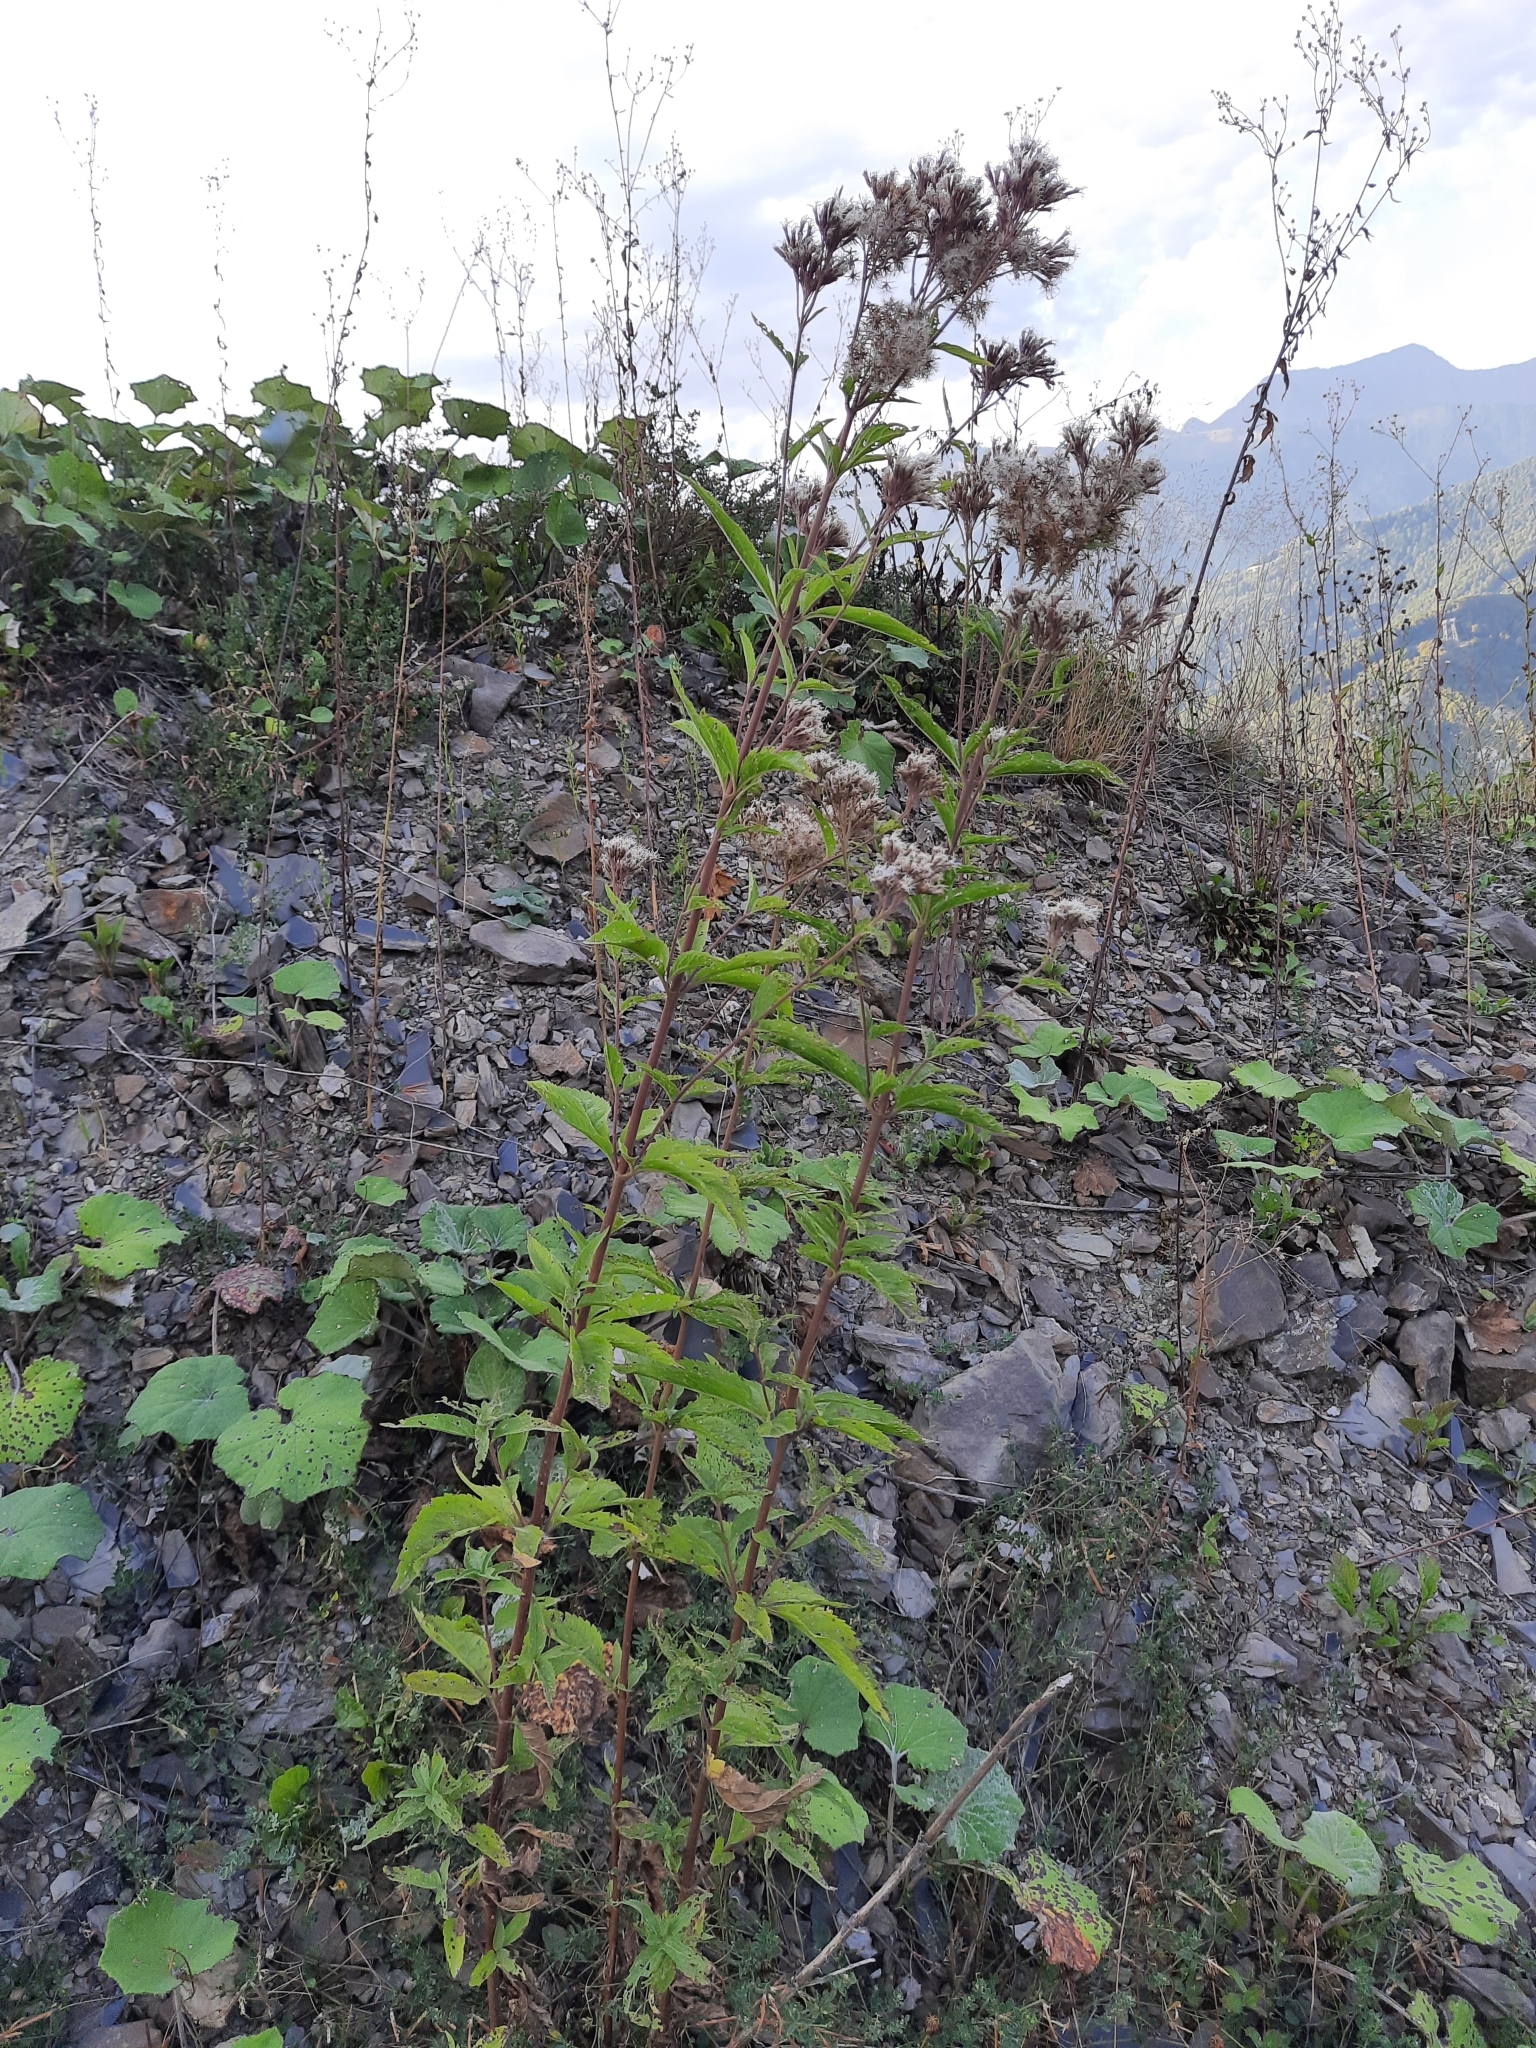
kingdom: Plantae
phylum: Tracheophyta
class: Magnoliopsida
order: Asterales
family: Asteraceae
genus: Eupatorium
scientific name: Eupatorium cannabinum
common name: Hemp-agrimony
